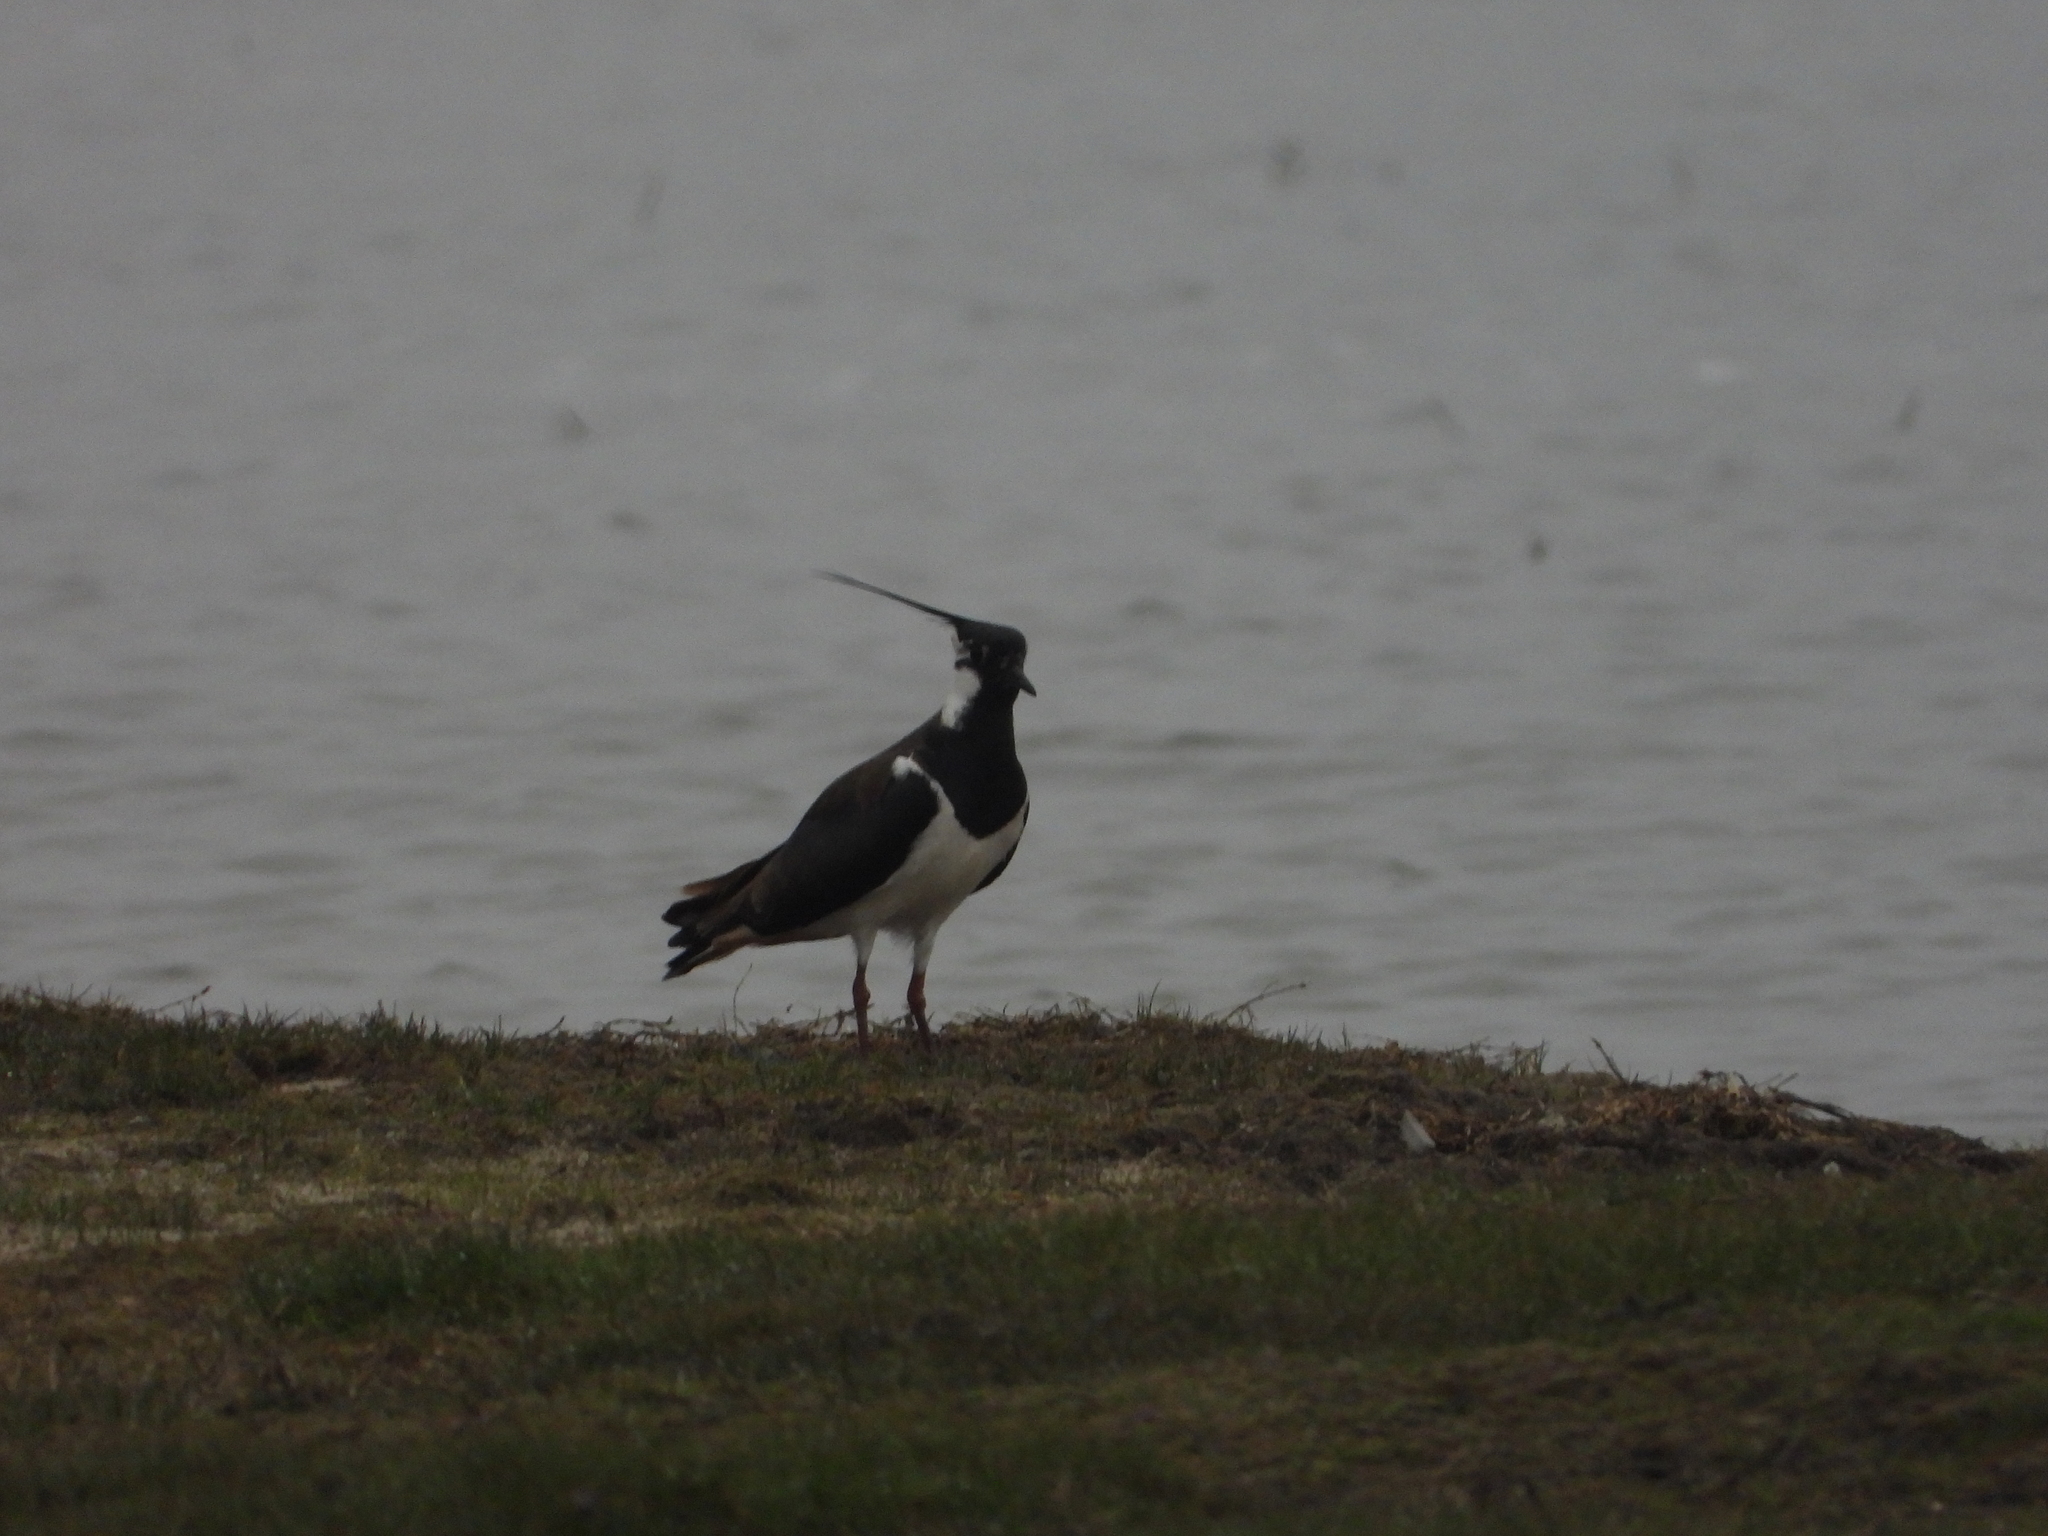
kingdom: Animalia
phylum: Chordata
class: Aves
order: Charadriiformes
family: Charadriidae
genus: Vanellus
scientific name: Vanellus vanellus
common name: Northern lapwing
